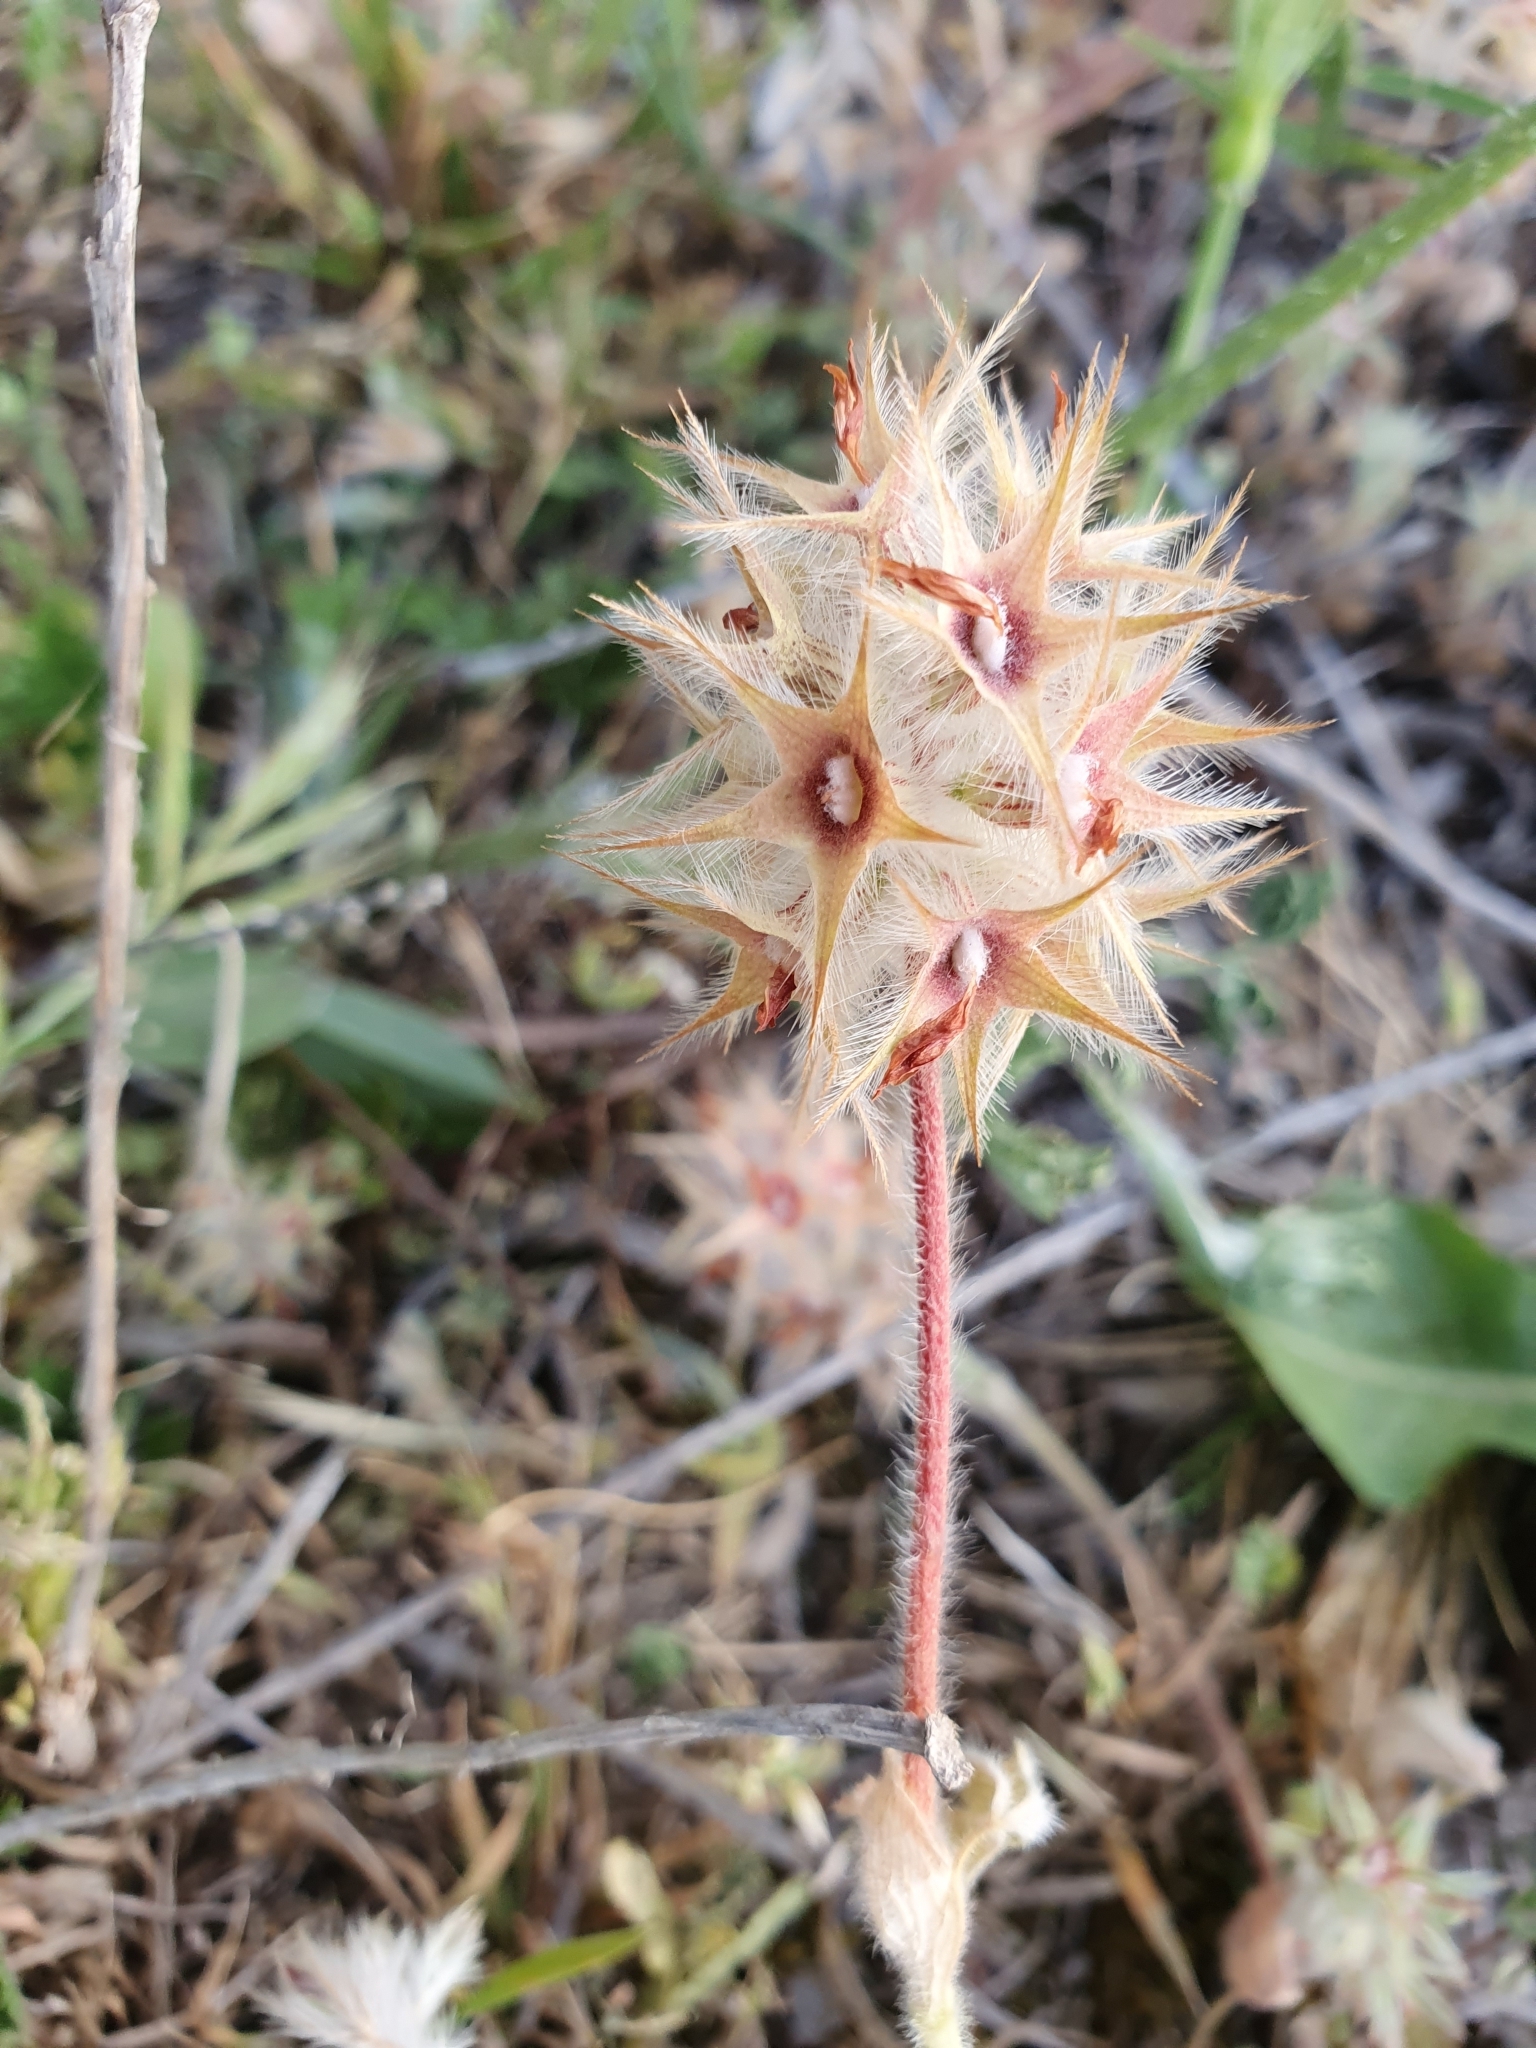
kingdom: Plantae
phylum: Tracheophyta
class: Magnoliopsida
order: Fabales
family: Fabaceae
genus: Trifolium
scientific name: Trifolium stellatum
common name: Starry clover
